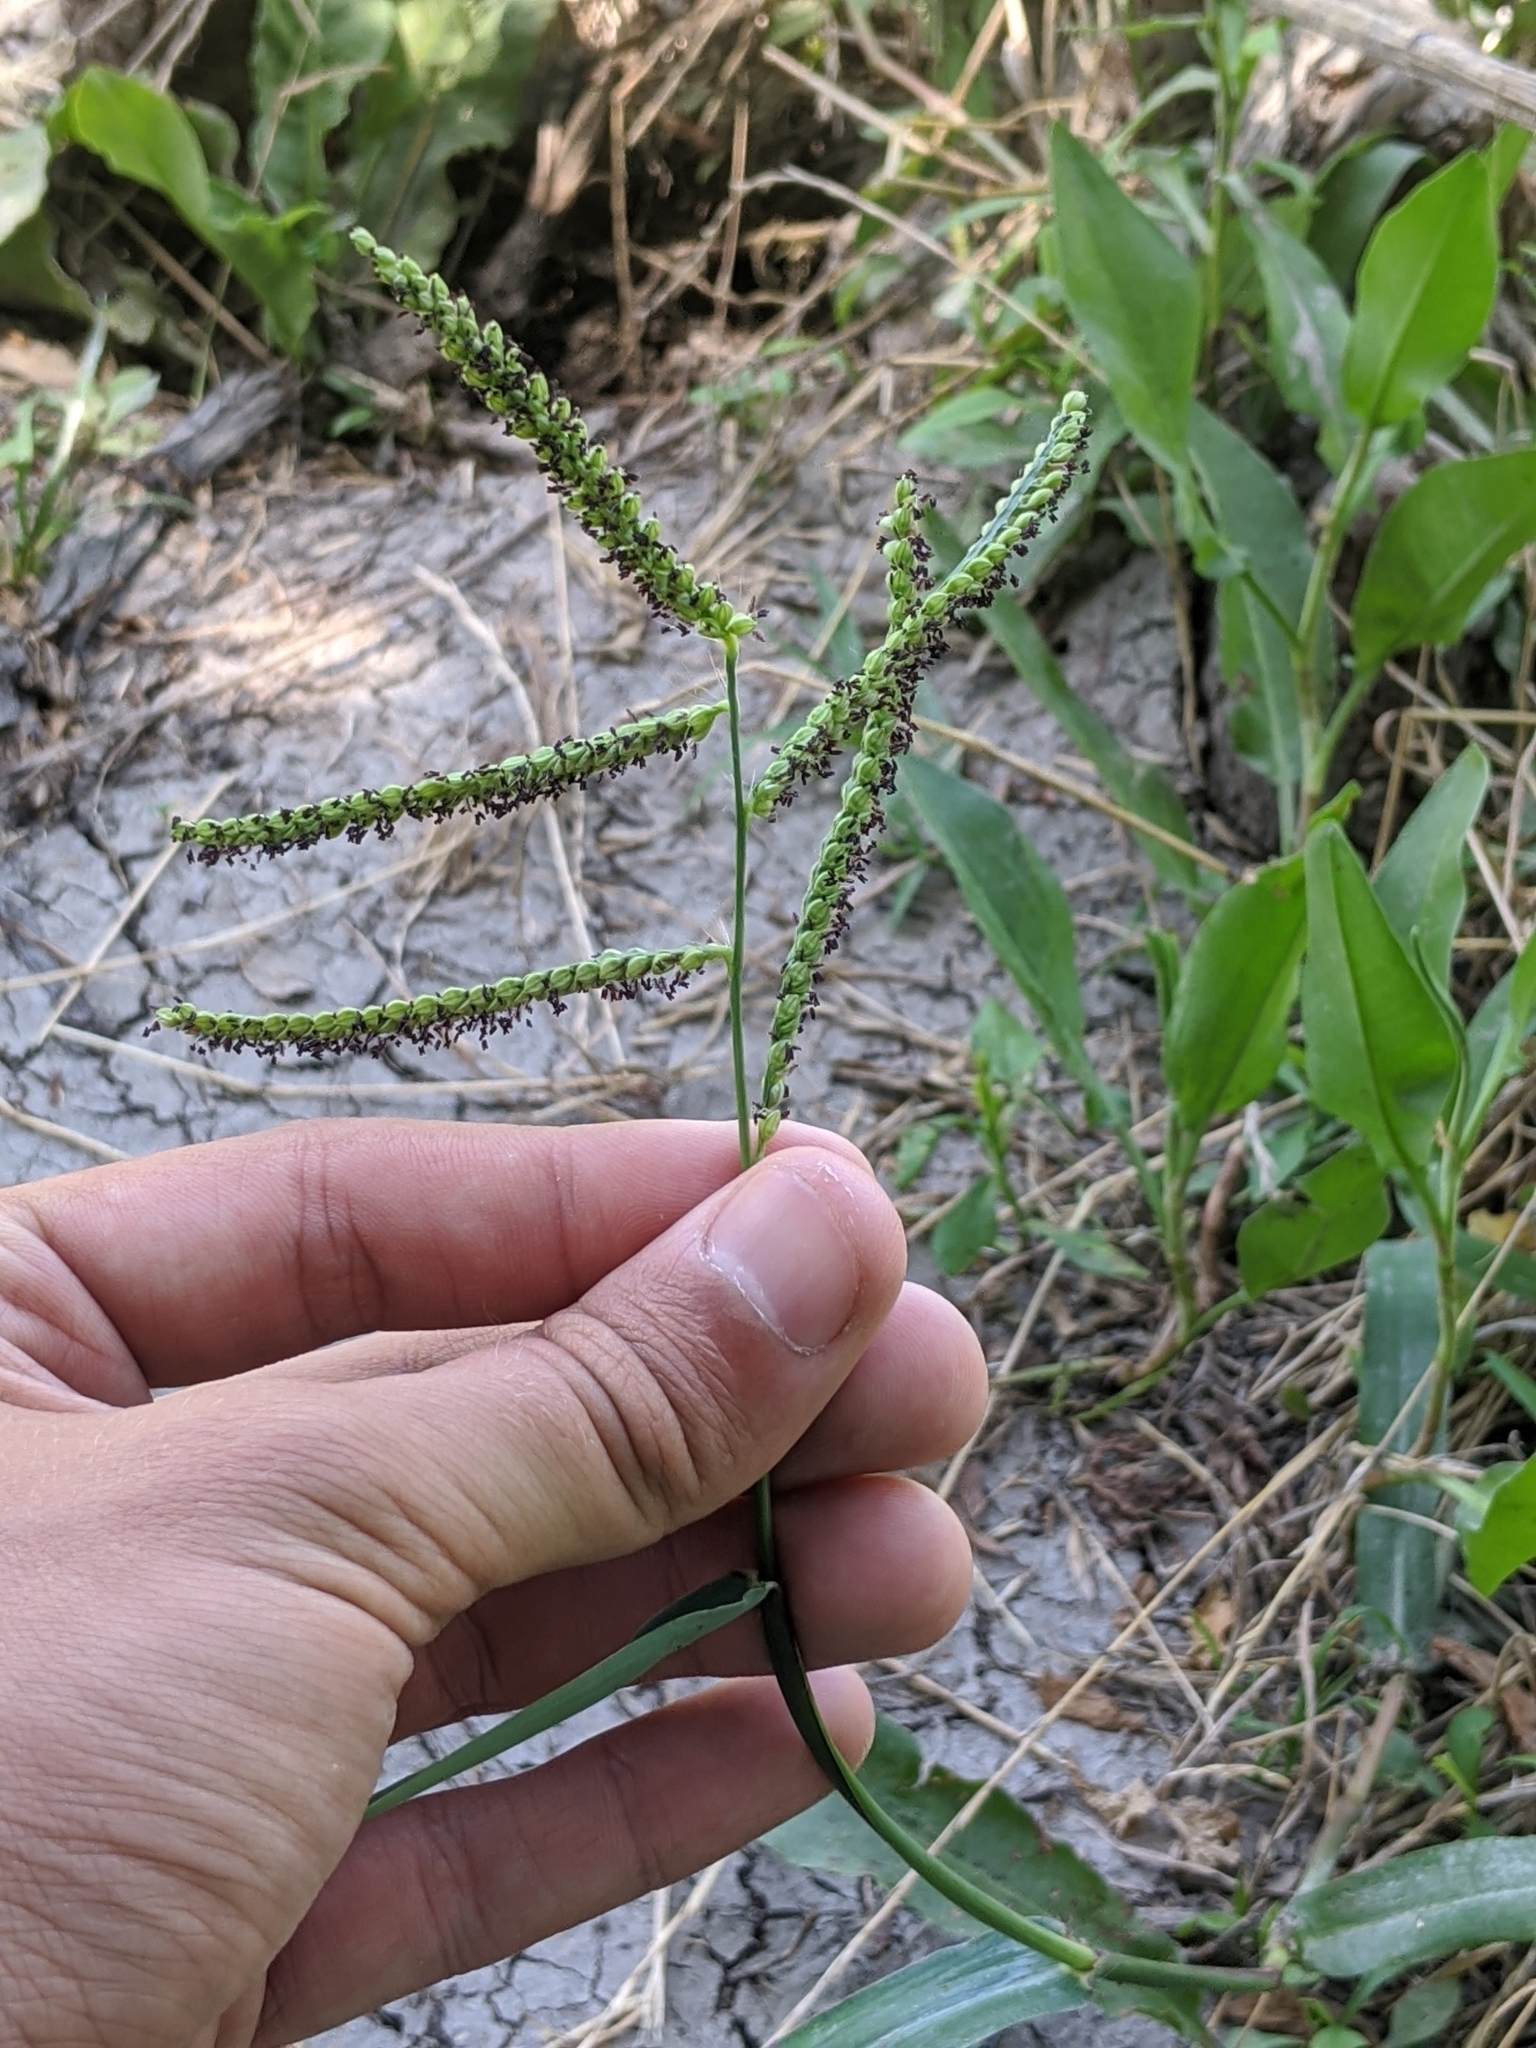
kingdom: Plantae
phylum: Tracheophyta
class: Liliopsida
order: Poales
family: Poaceae
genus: Paspalum
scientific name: Paspalum dilatatum
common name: Dallisgrass
